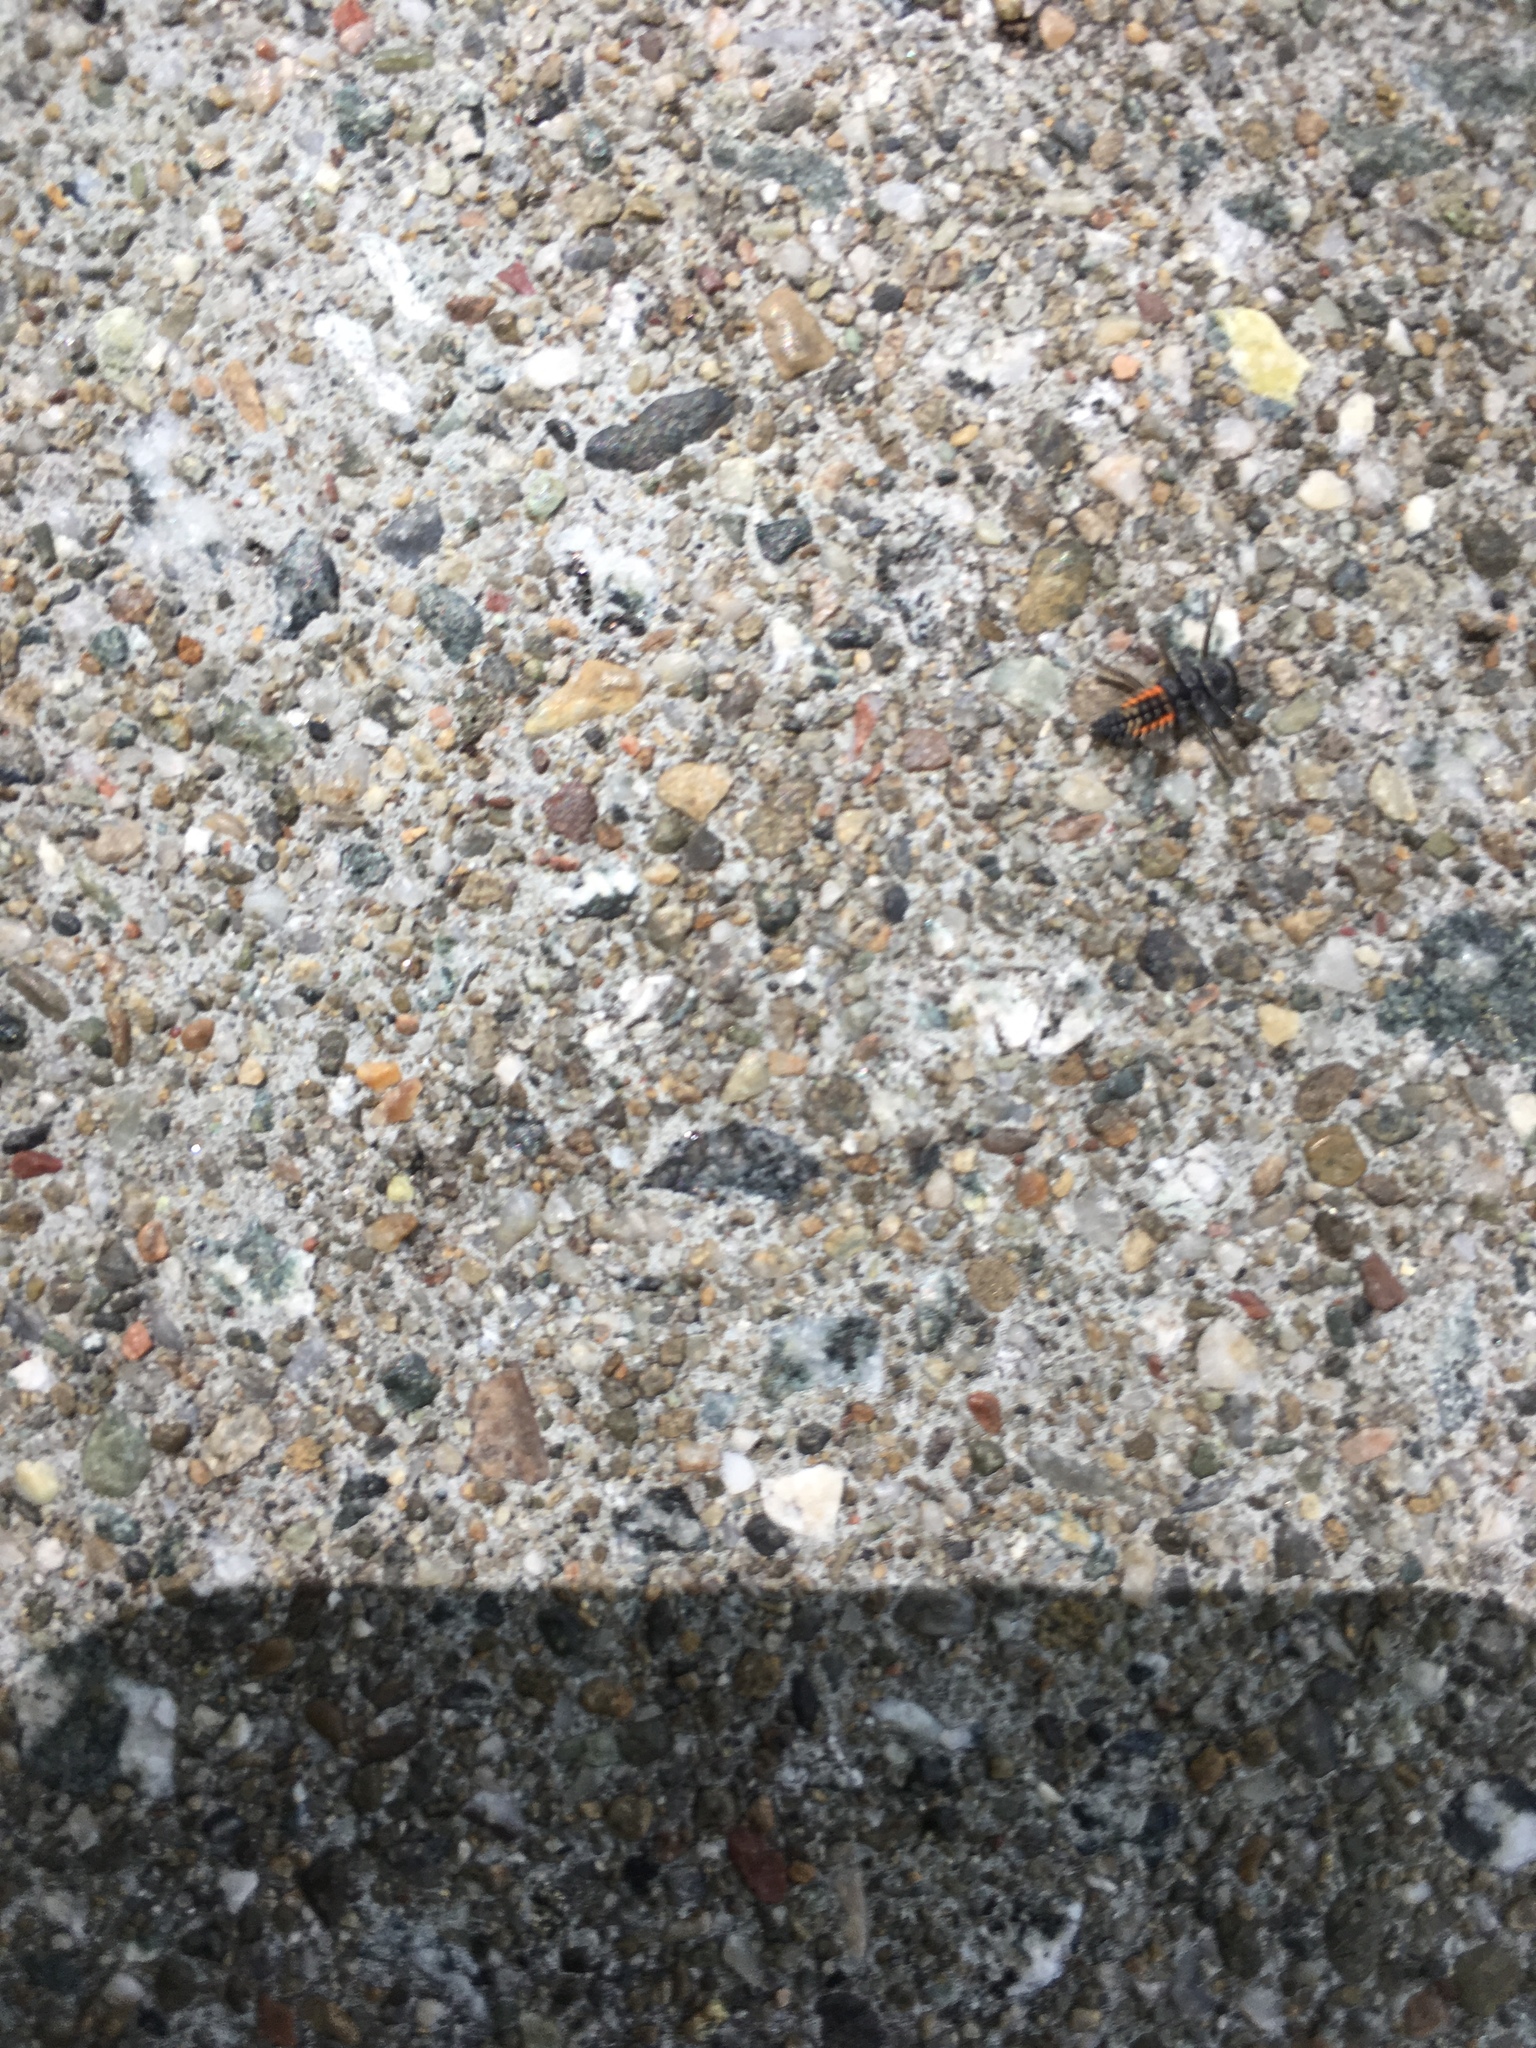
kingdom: Animalia
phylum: Arthropoda
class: Insecta
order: Coleoptera
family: Coccinellidae
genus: Harmonia
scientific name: Harmonia axyridis
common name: Harlequin ladybird
